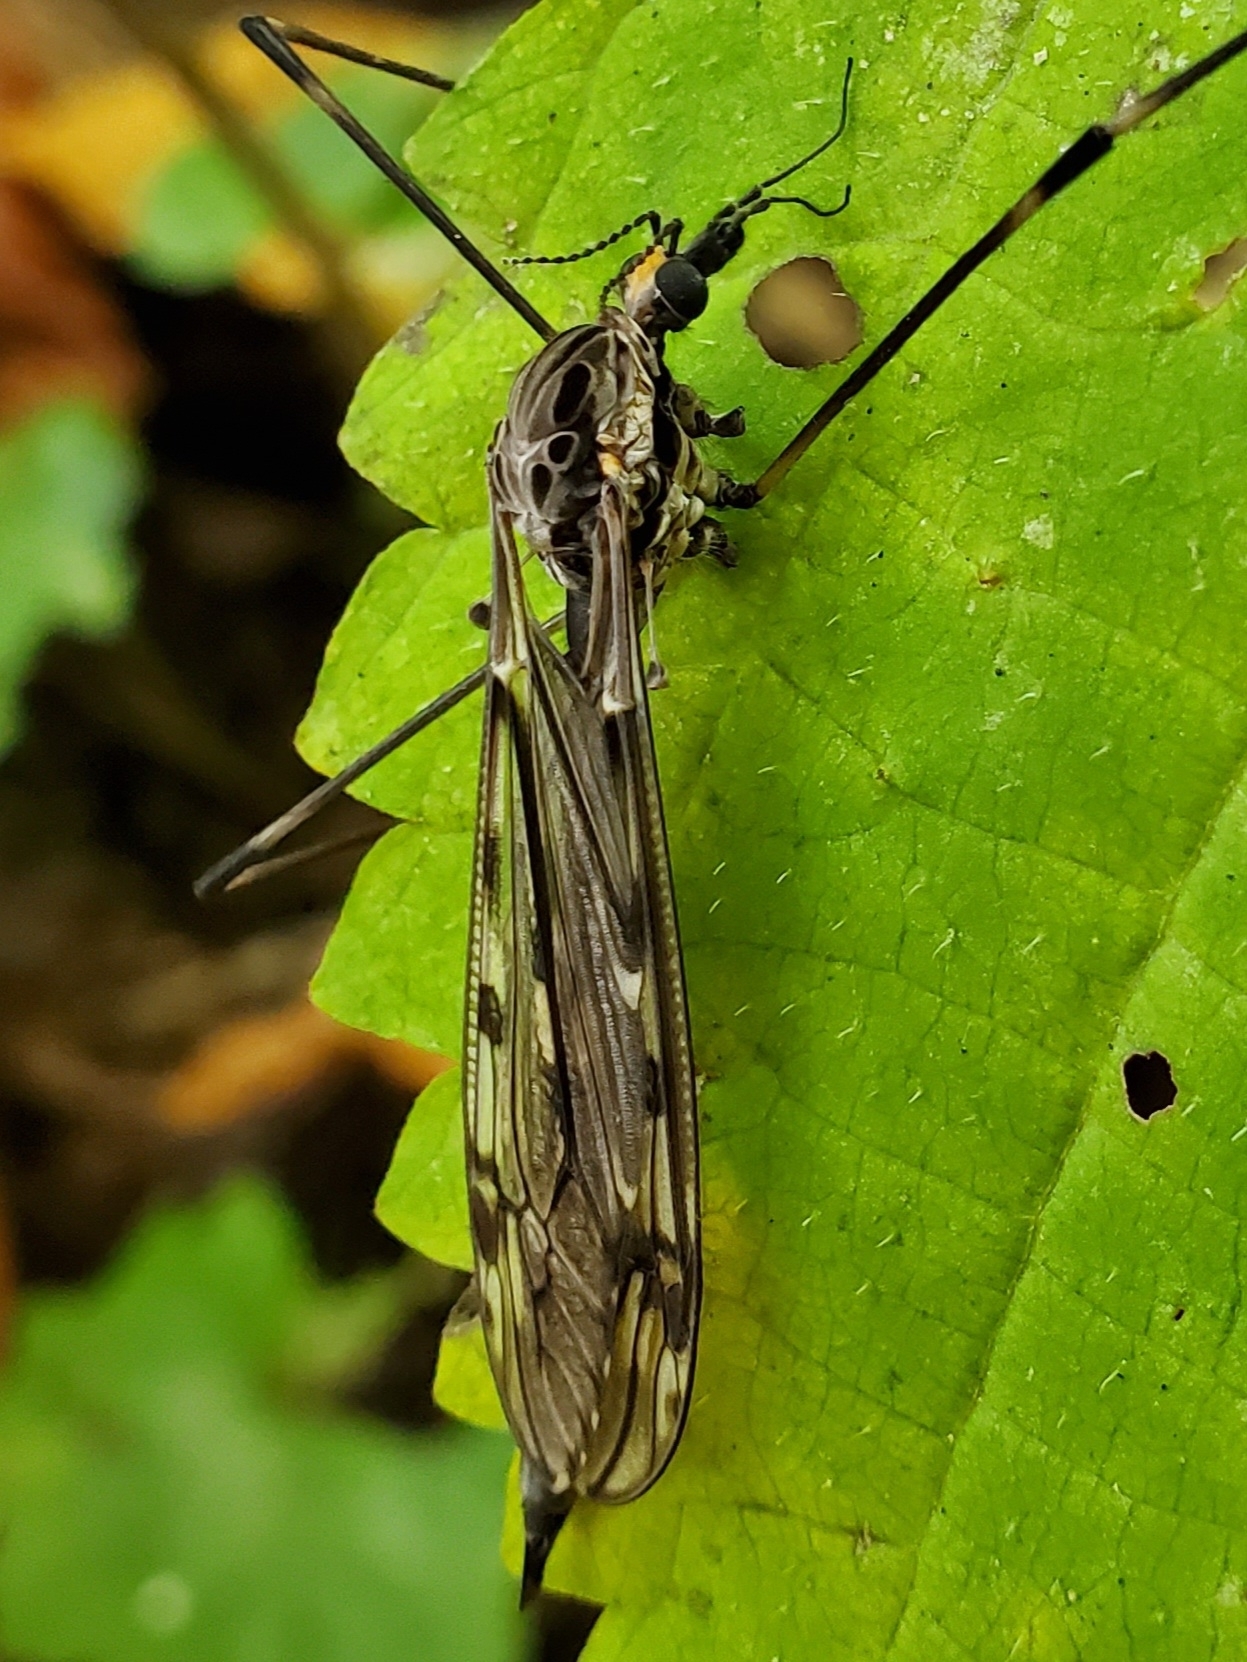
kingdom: Animalia
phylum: Arthropoda
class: Insecta
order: Diptera
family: Tipulidae
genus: Tipula
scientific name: Tipula abdominalis
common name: Giant crane fly
